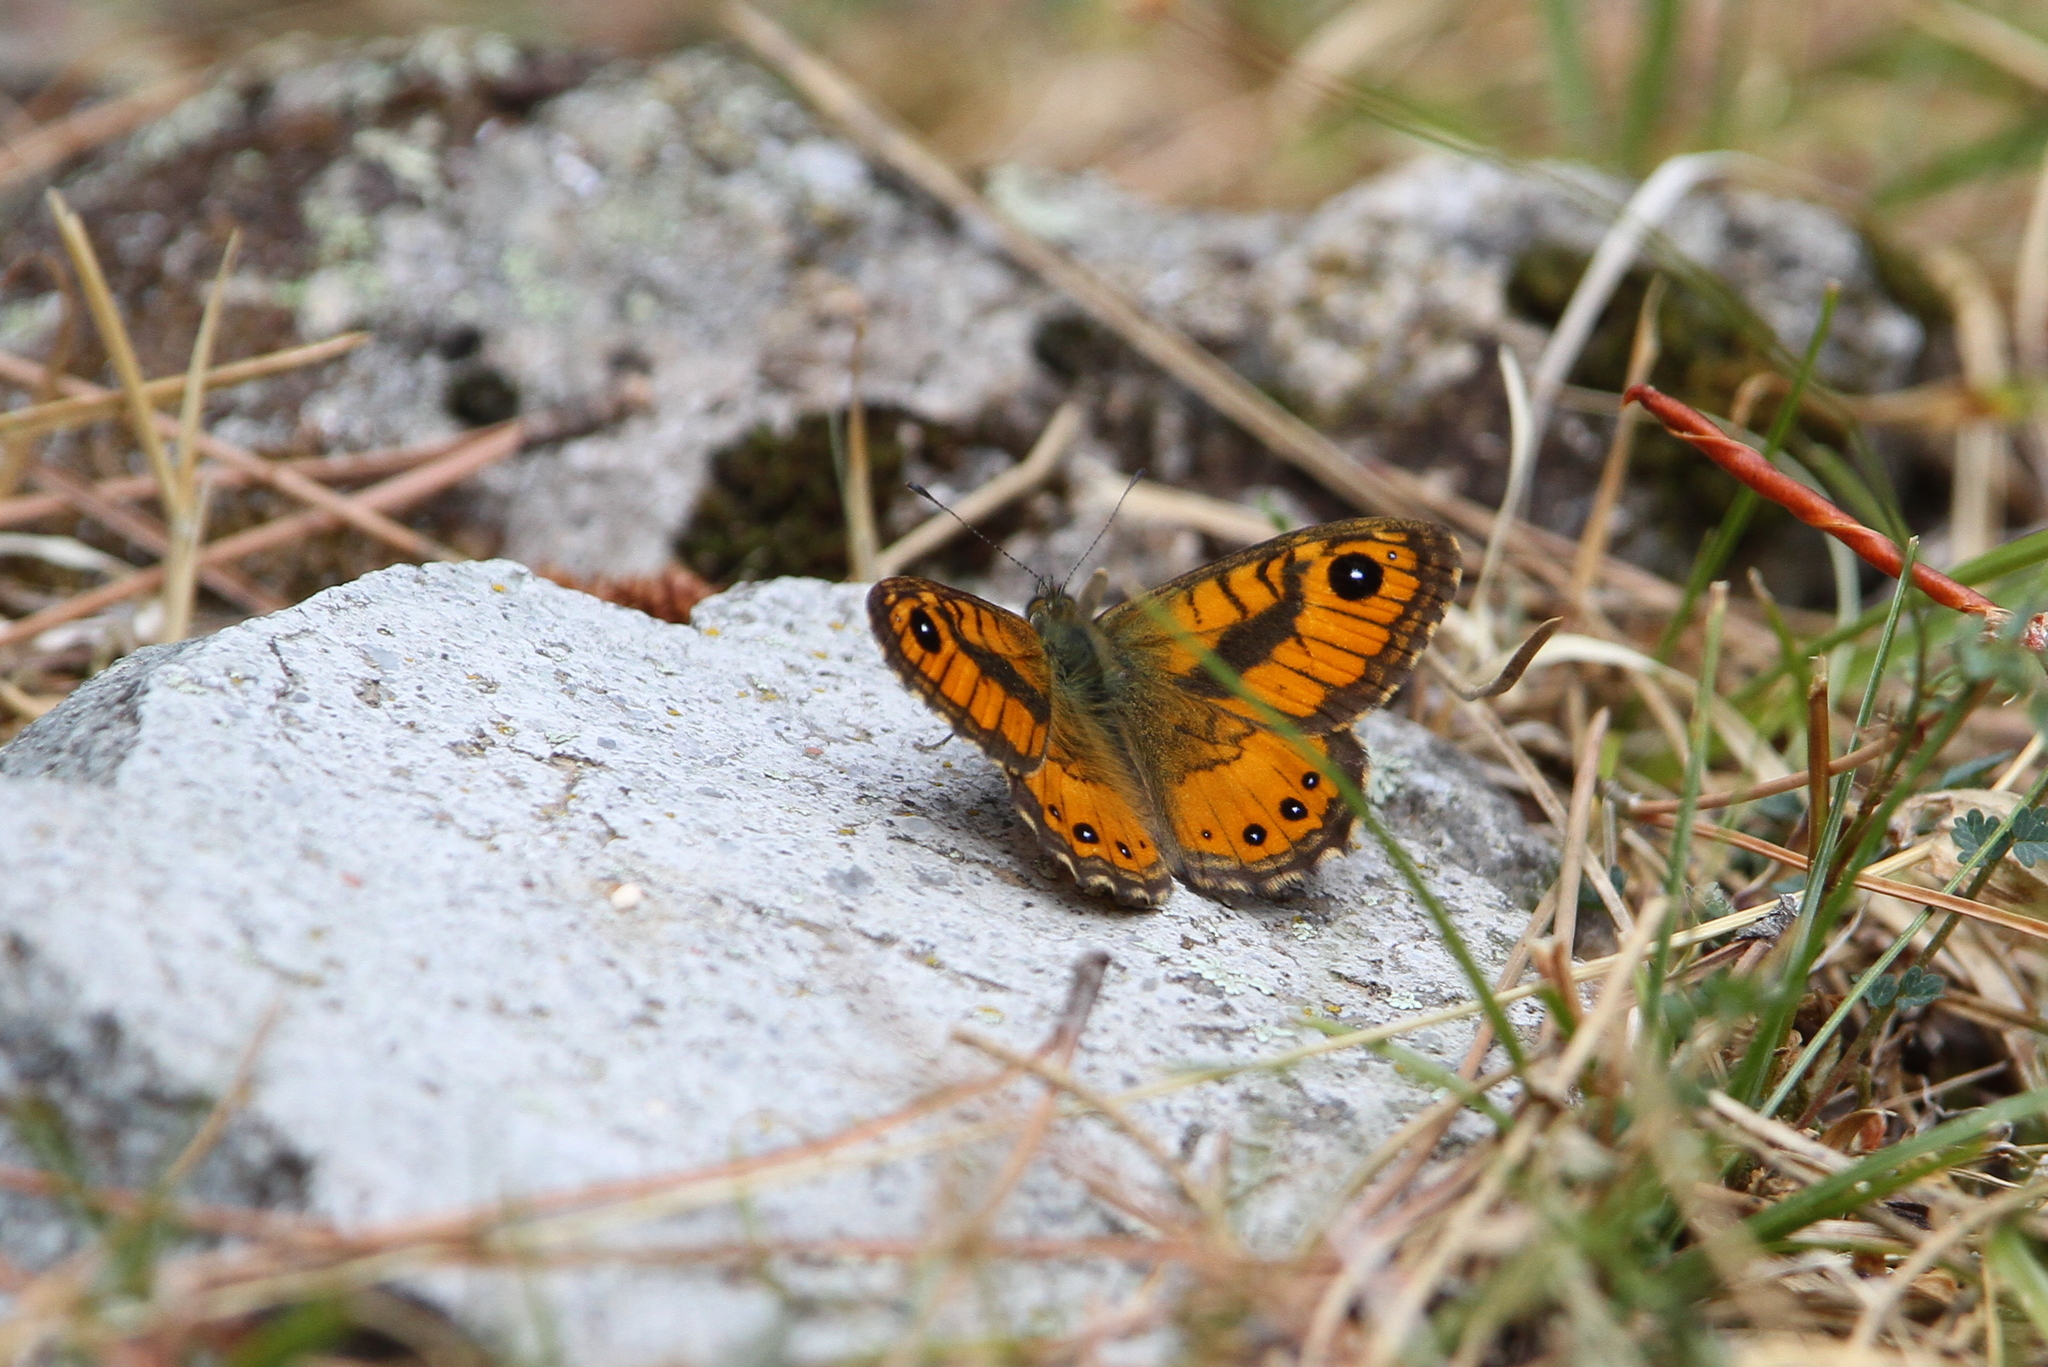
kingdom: Animalia
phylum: Arthropoda
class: Insecta
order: Lepidoptera
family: Nymphalidae
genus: Pararge
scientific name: Pararge Lasiommata paramegaera
